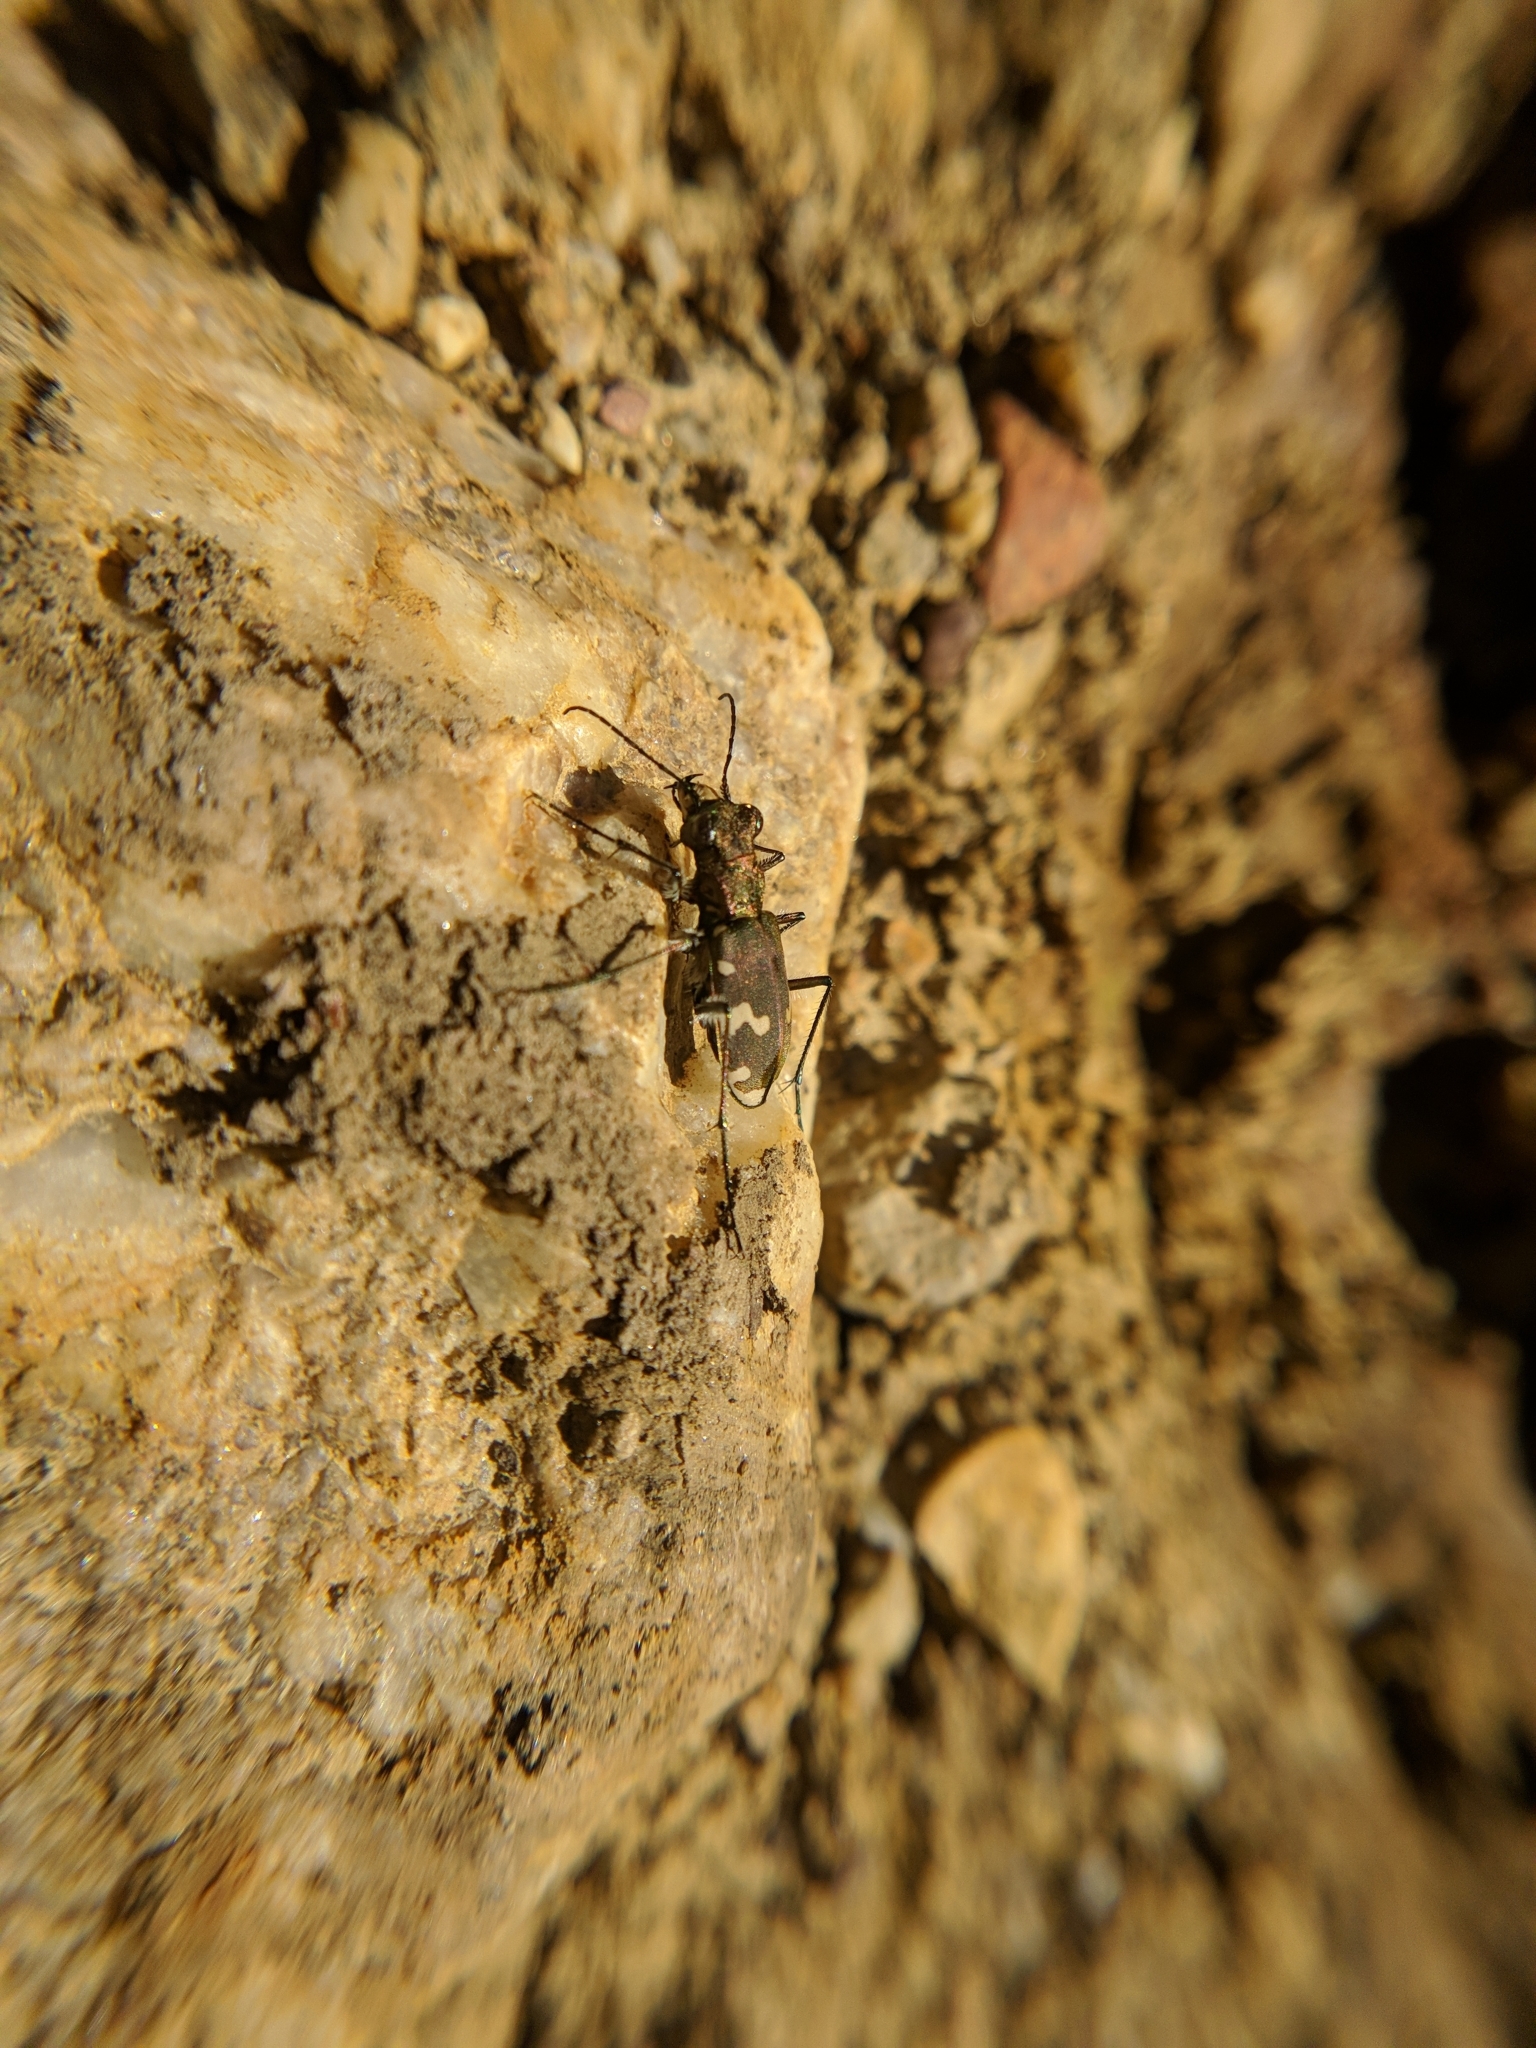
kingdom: Animalia
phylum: Arthropoda
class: Insecta
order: Coleoptera
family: Carabidae
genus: Cicindela
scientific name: Cicindela sylvicola
